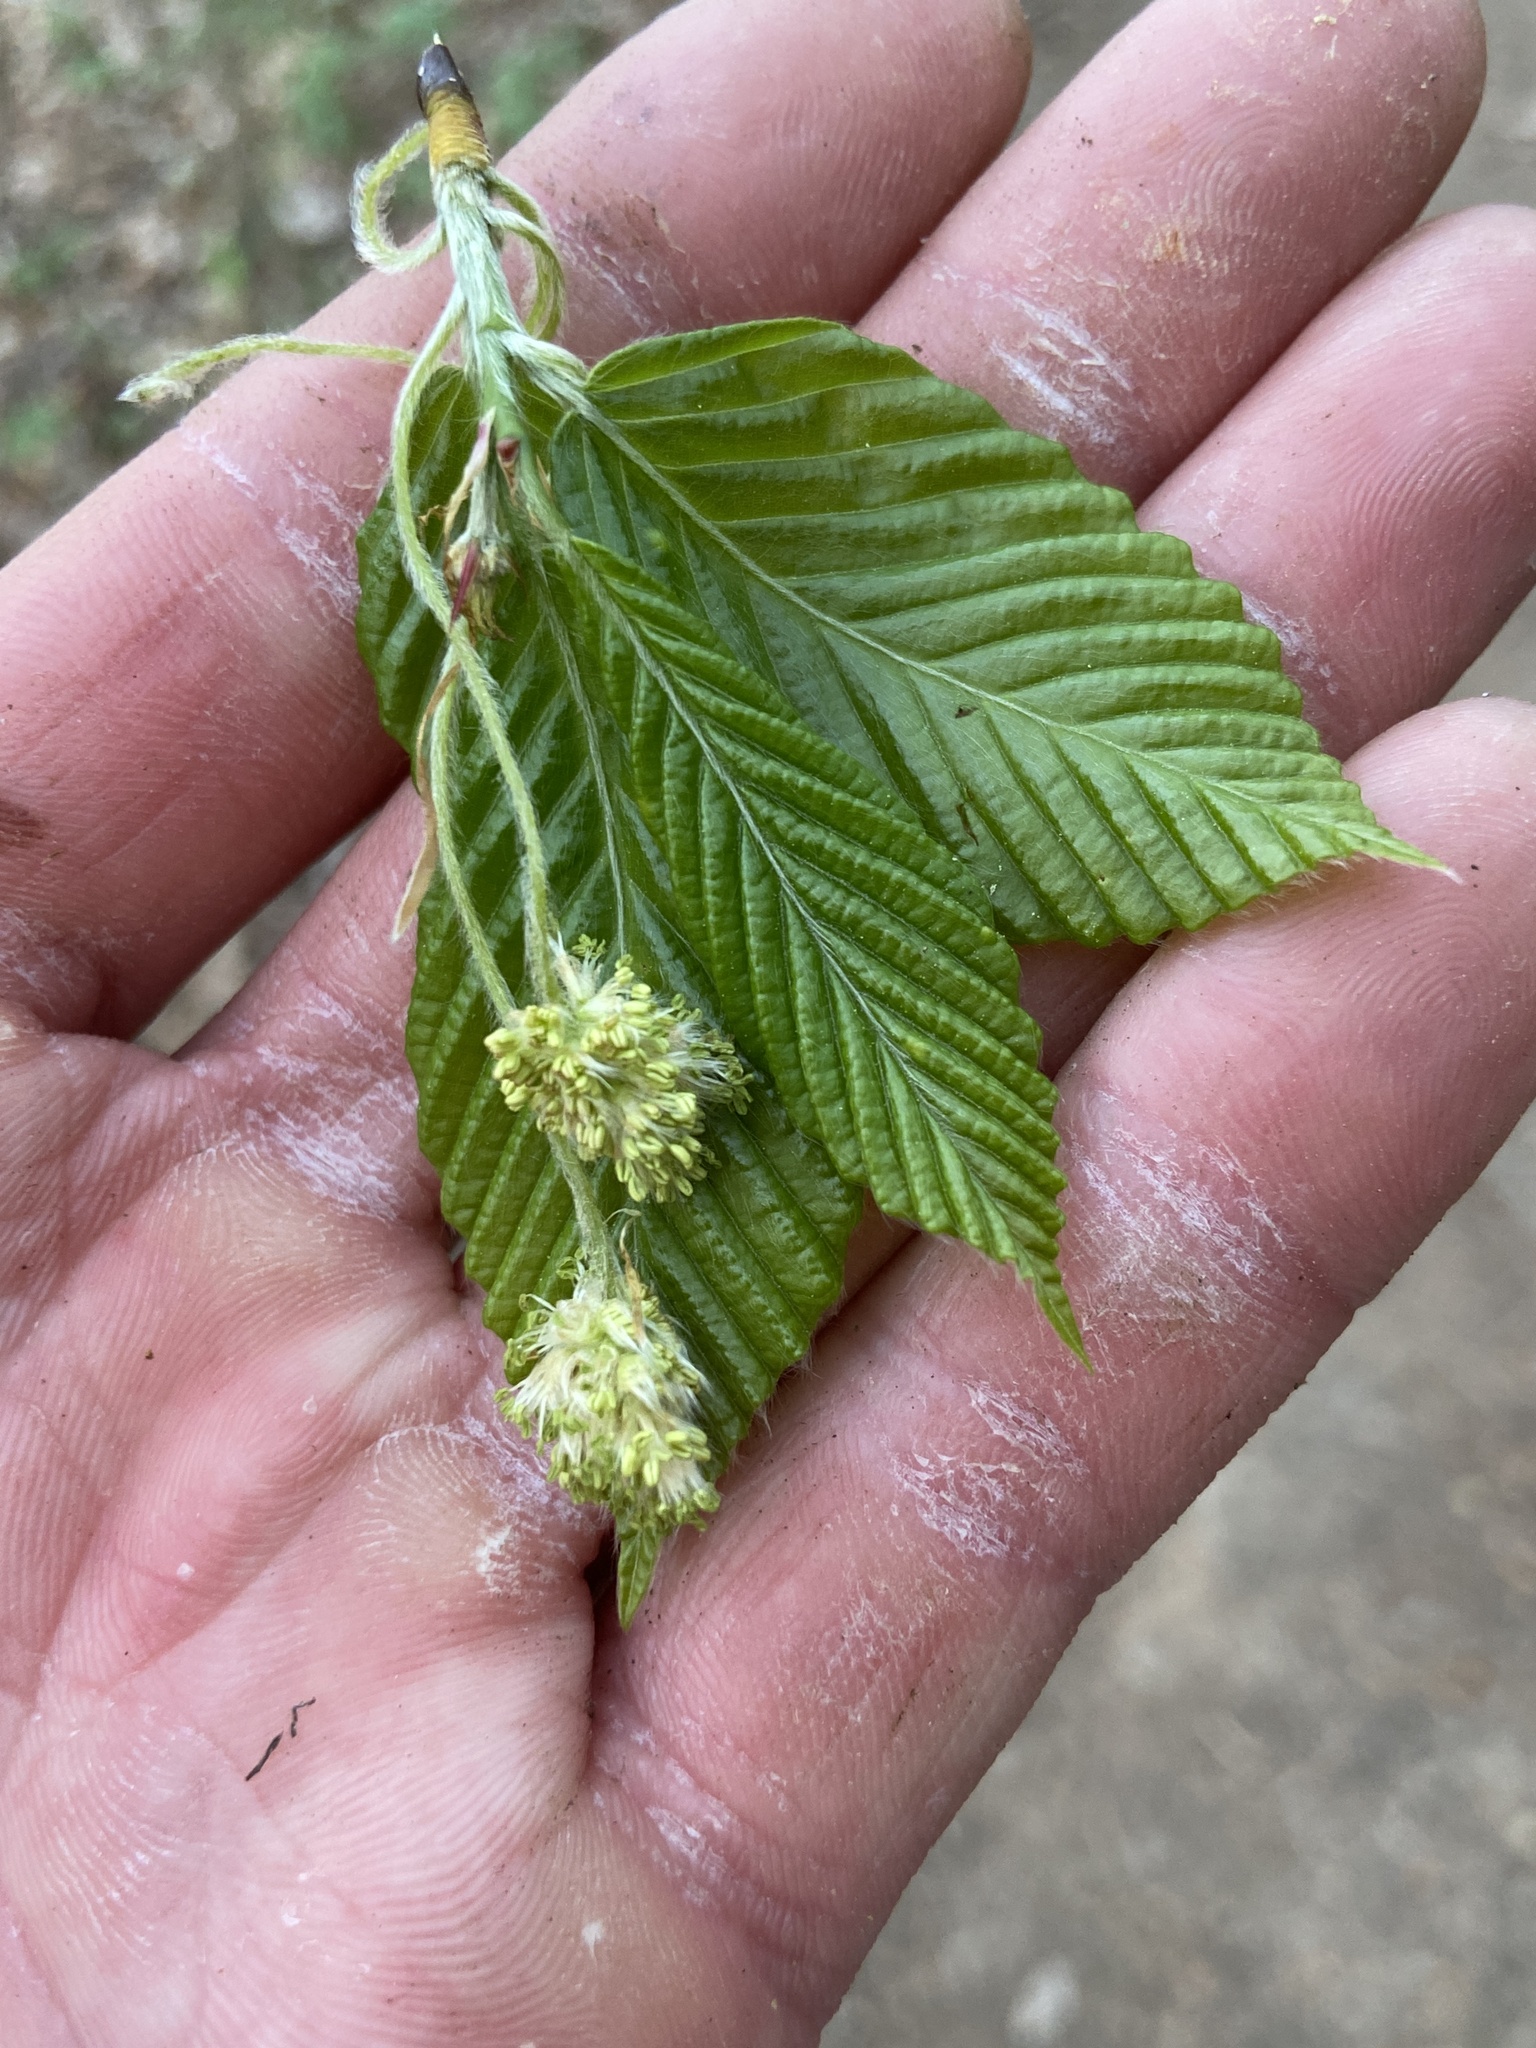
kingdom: Plantae
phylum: Tracheophyta
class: Magnoliopsida
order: Fagales
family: Fagaceae
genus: Fagus
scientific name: Fagus grandifolia
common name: American beech
